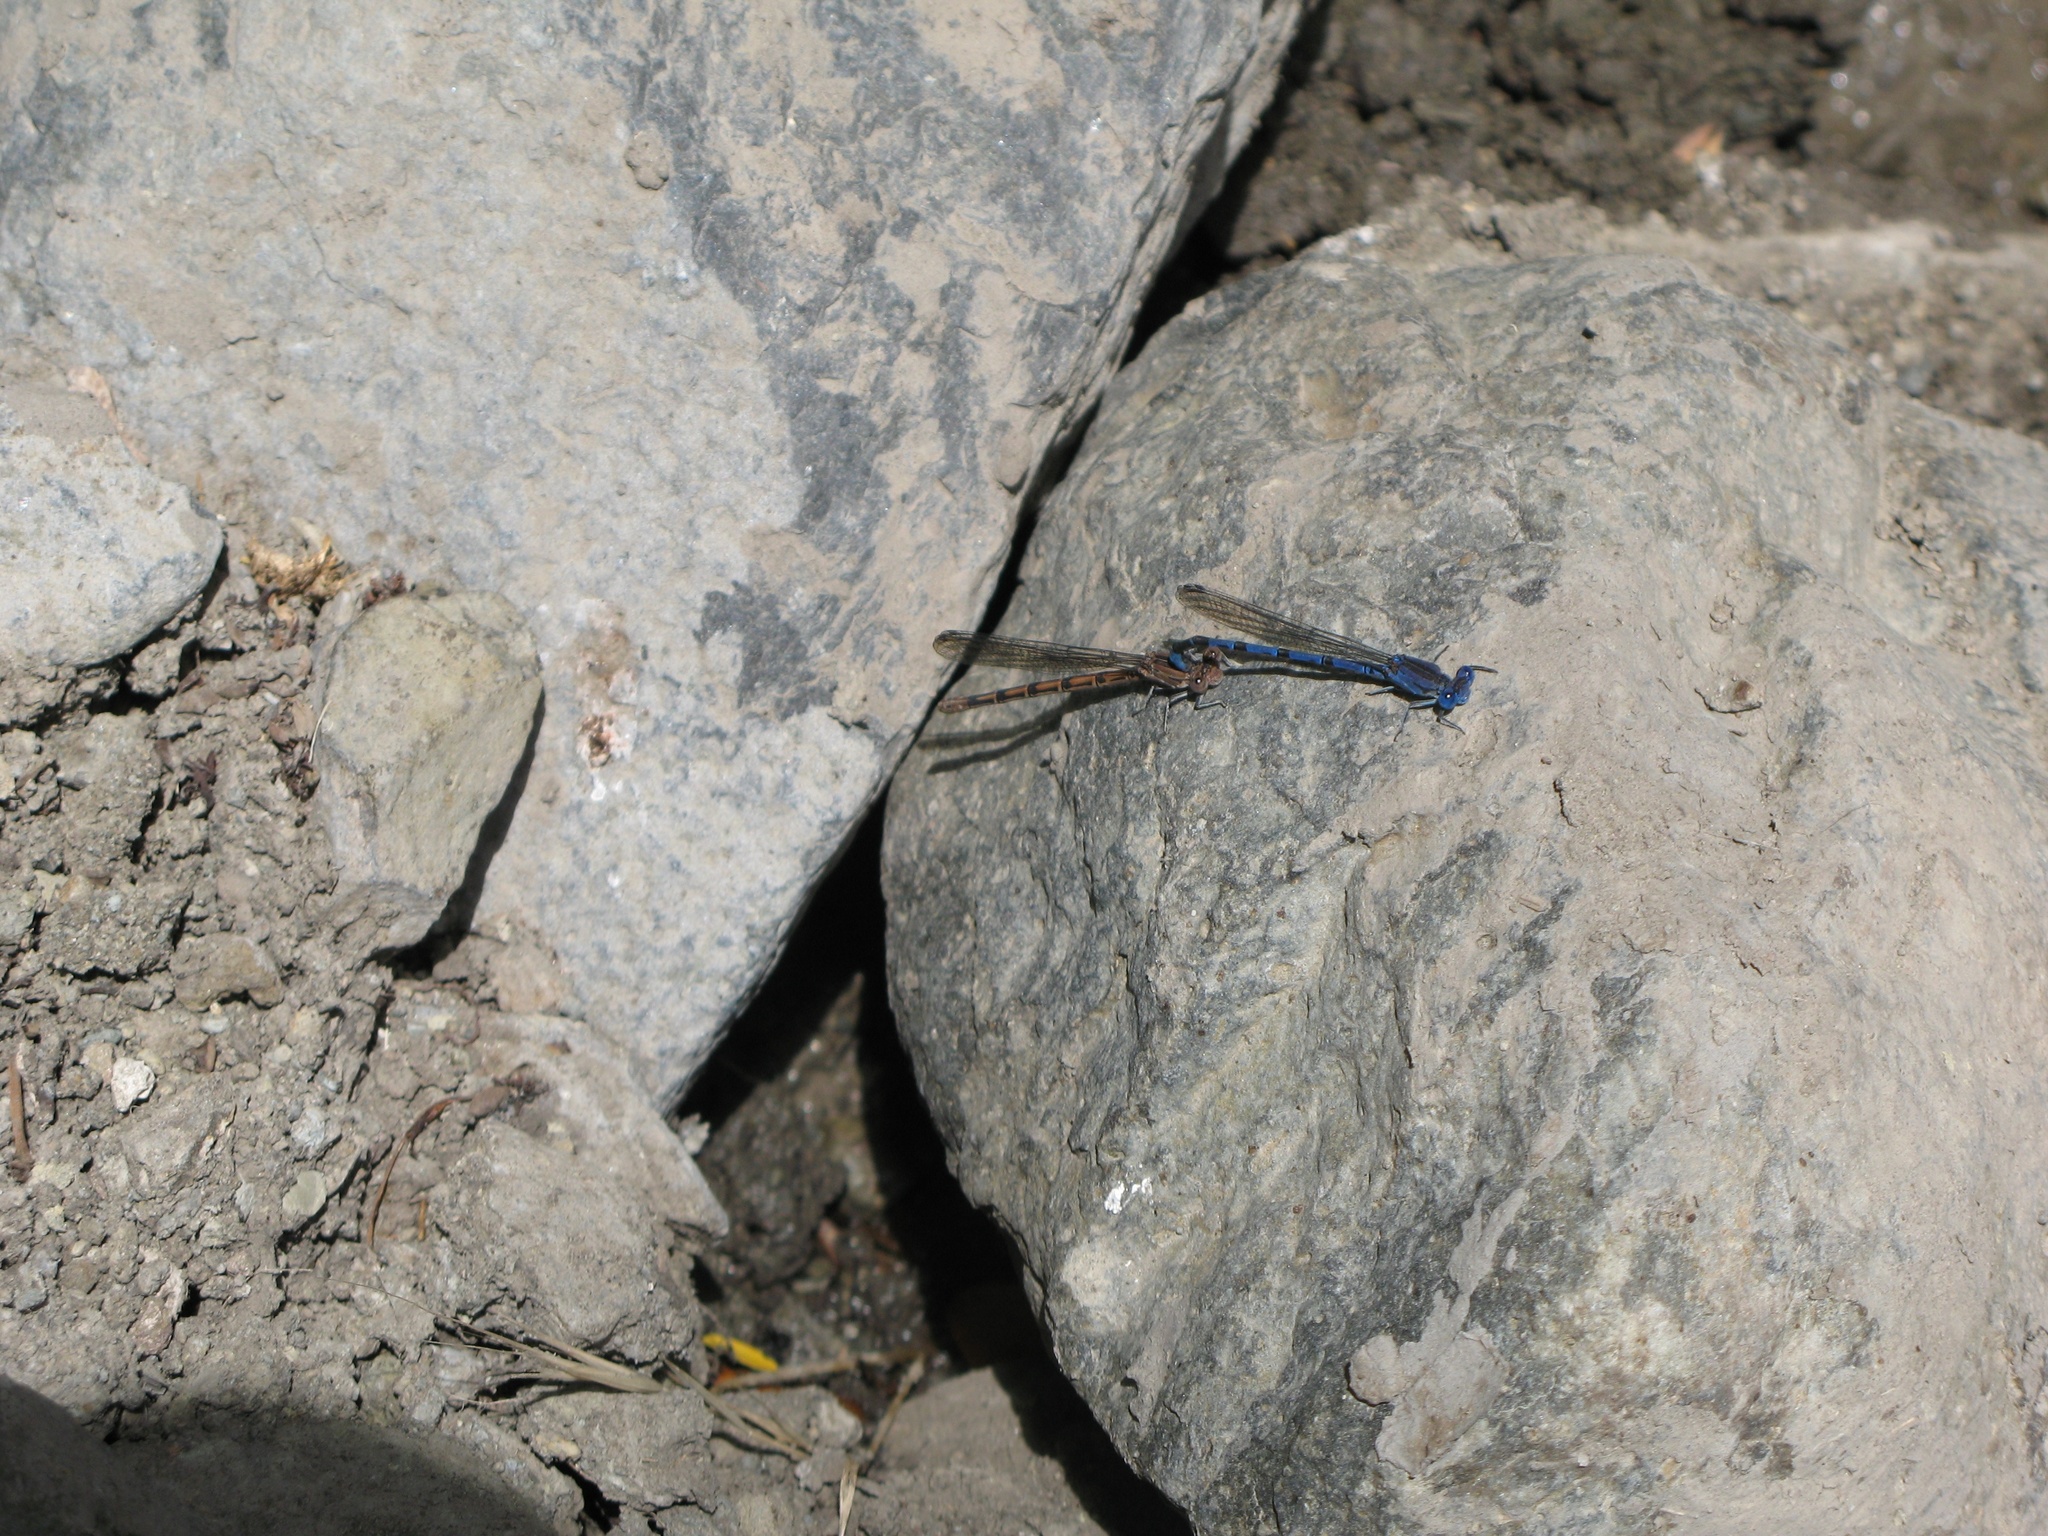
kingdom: Animalia
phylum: Arthropoda
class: Insecta
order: Odonata
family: Coenagrionidae
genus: Argia
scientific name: Argia vivida
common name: Vivid dancer
